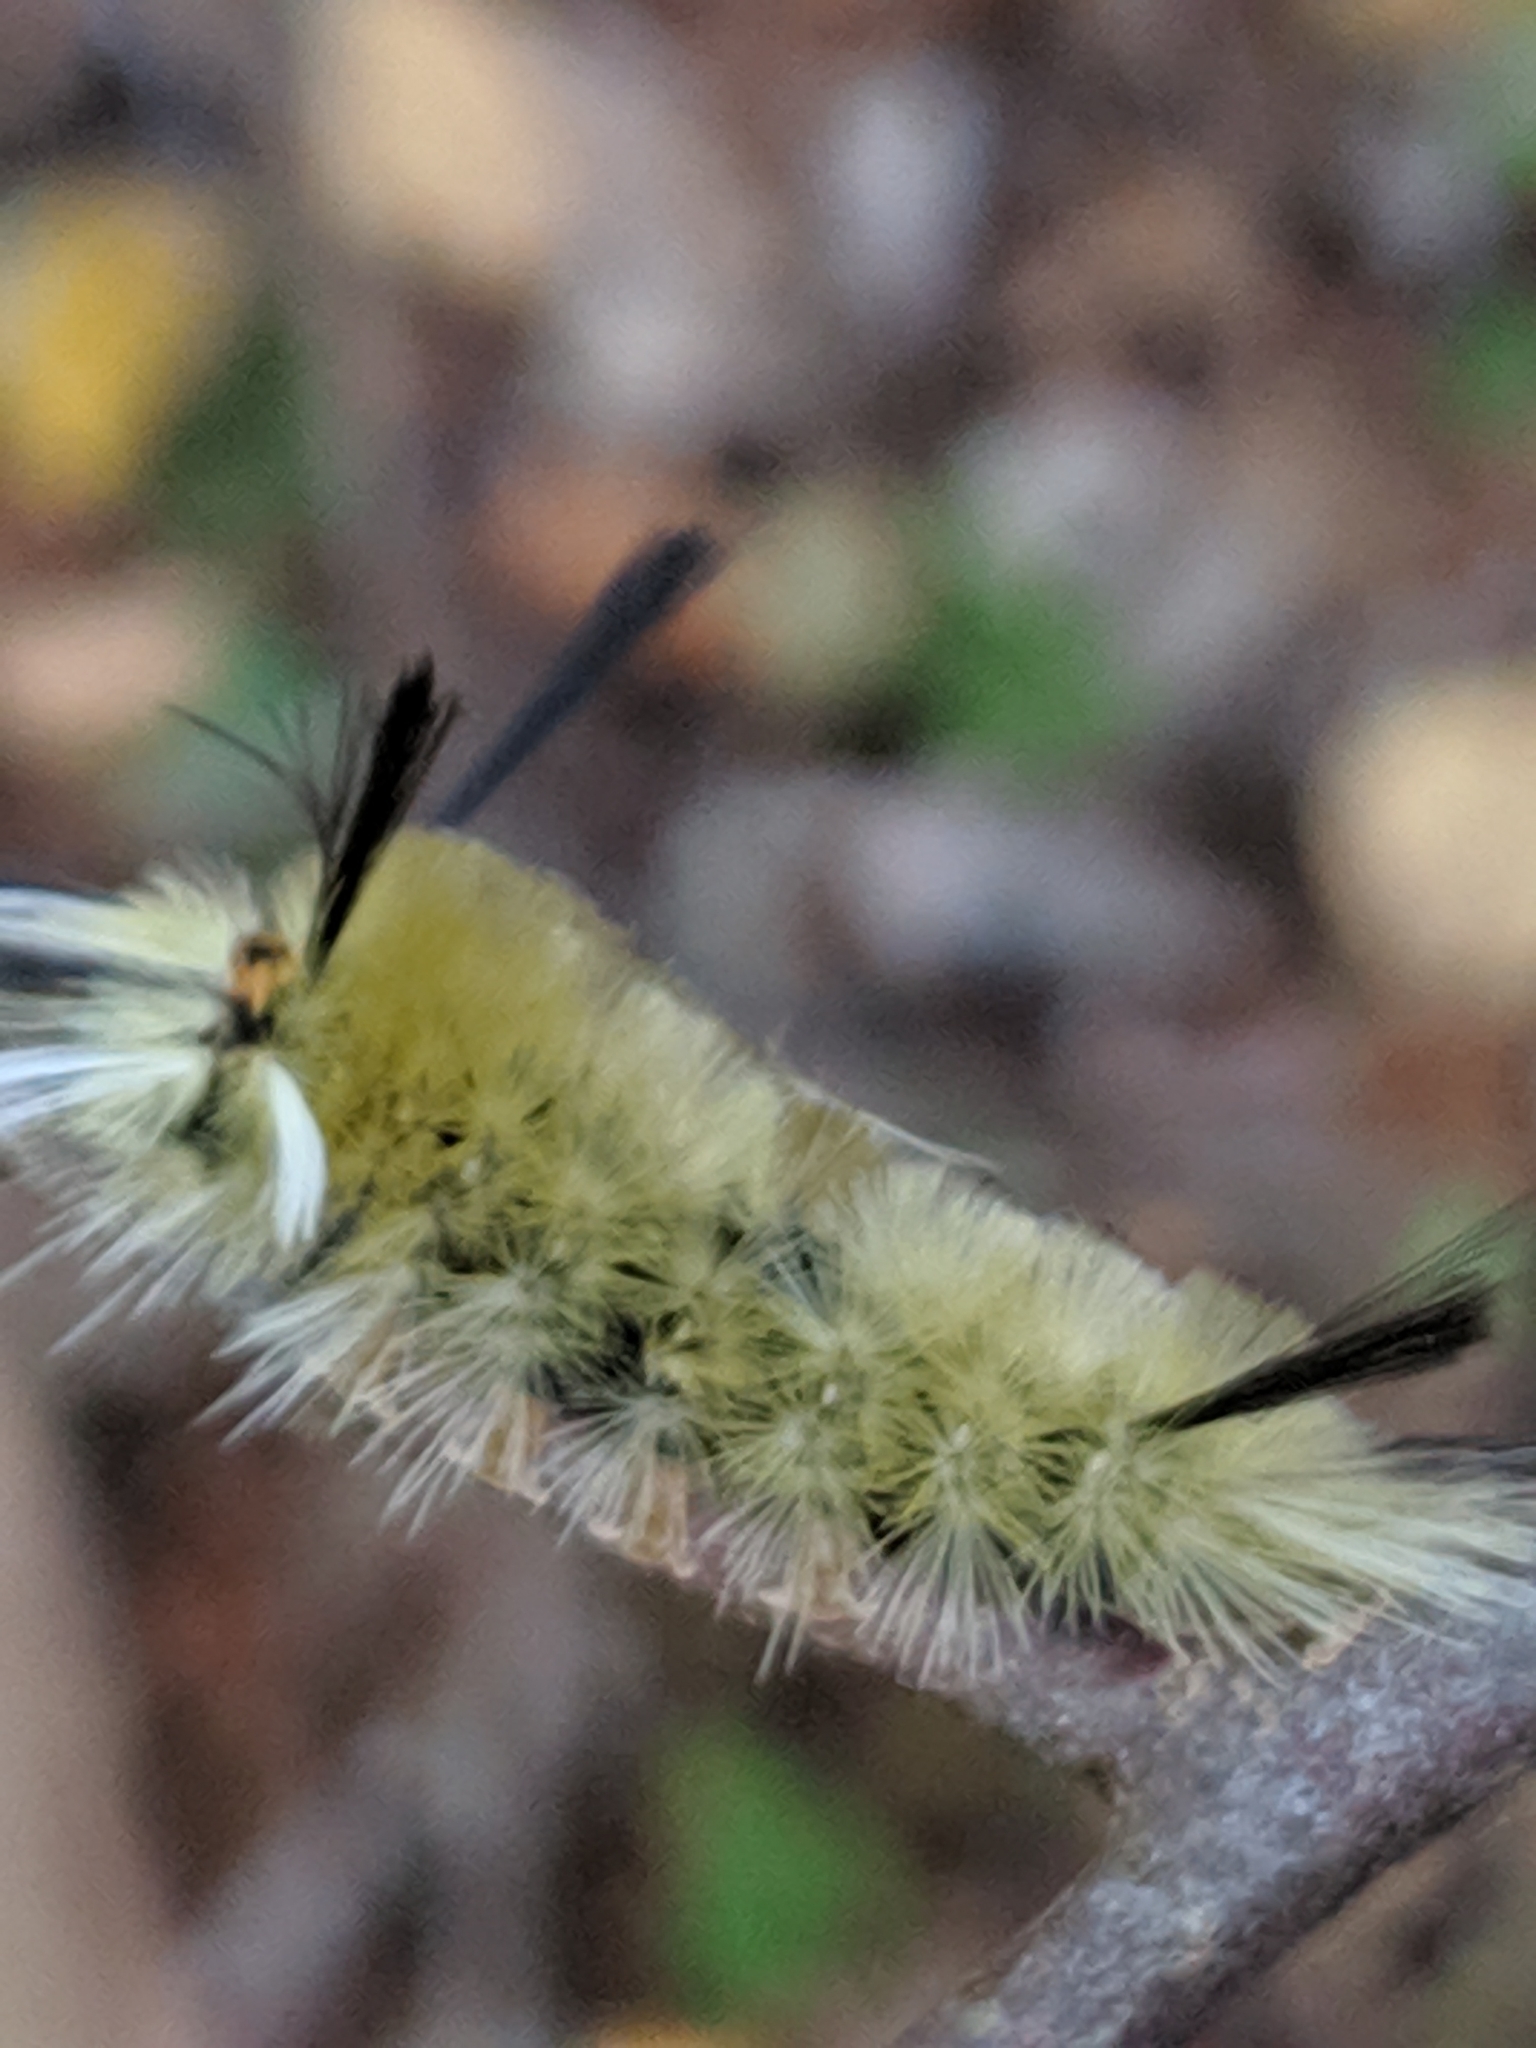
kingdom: Animalia
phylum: Arthropoda
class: Insecta
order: Lepidoptera
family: Erebidae
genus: Halysidota
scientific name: Halysidota tessellaris
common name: Banded tussock moth
